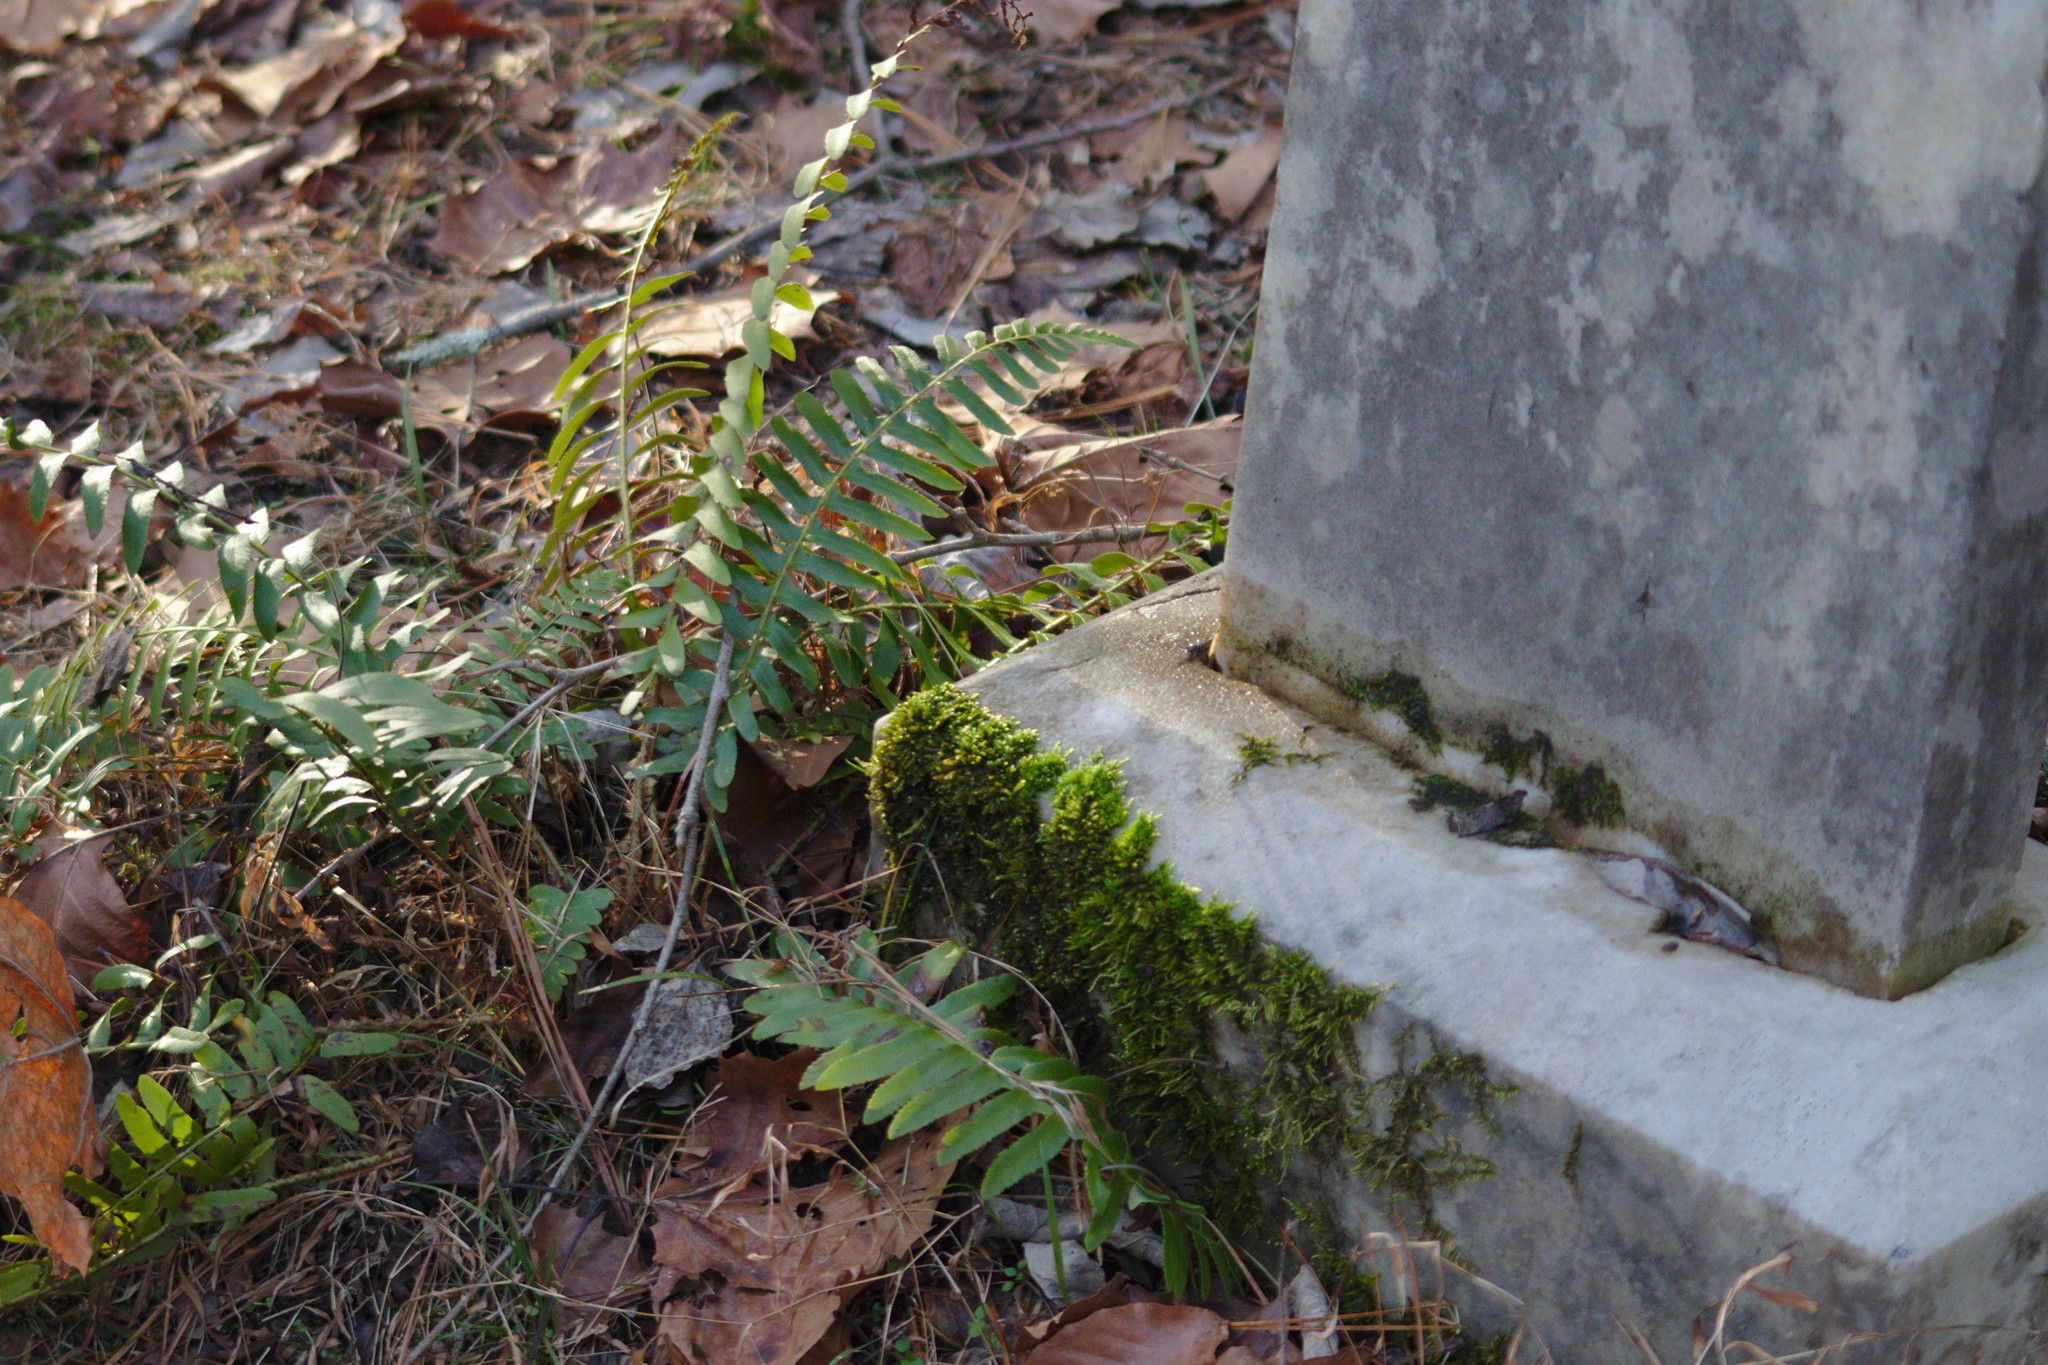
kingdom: Plantae
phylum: Tracheophyta
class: Polypodiopsida
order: Polypodiales
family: Dryopteridaceae
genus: Polystichum
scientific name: Polystichum acrostichoides
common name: Christmas fern
